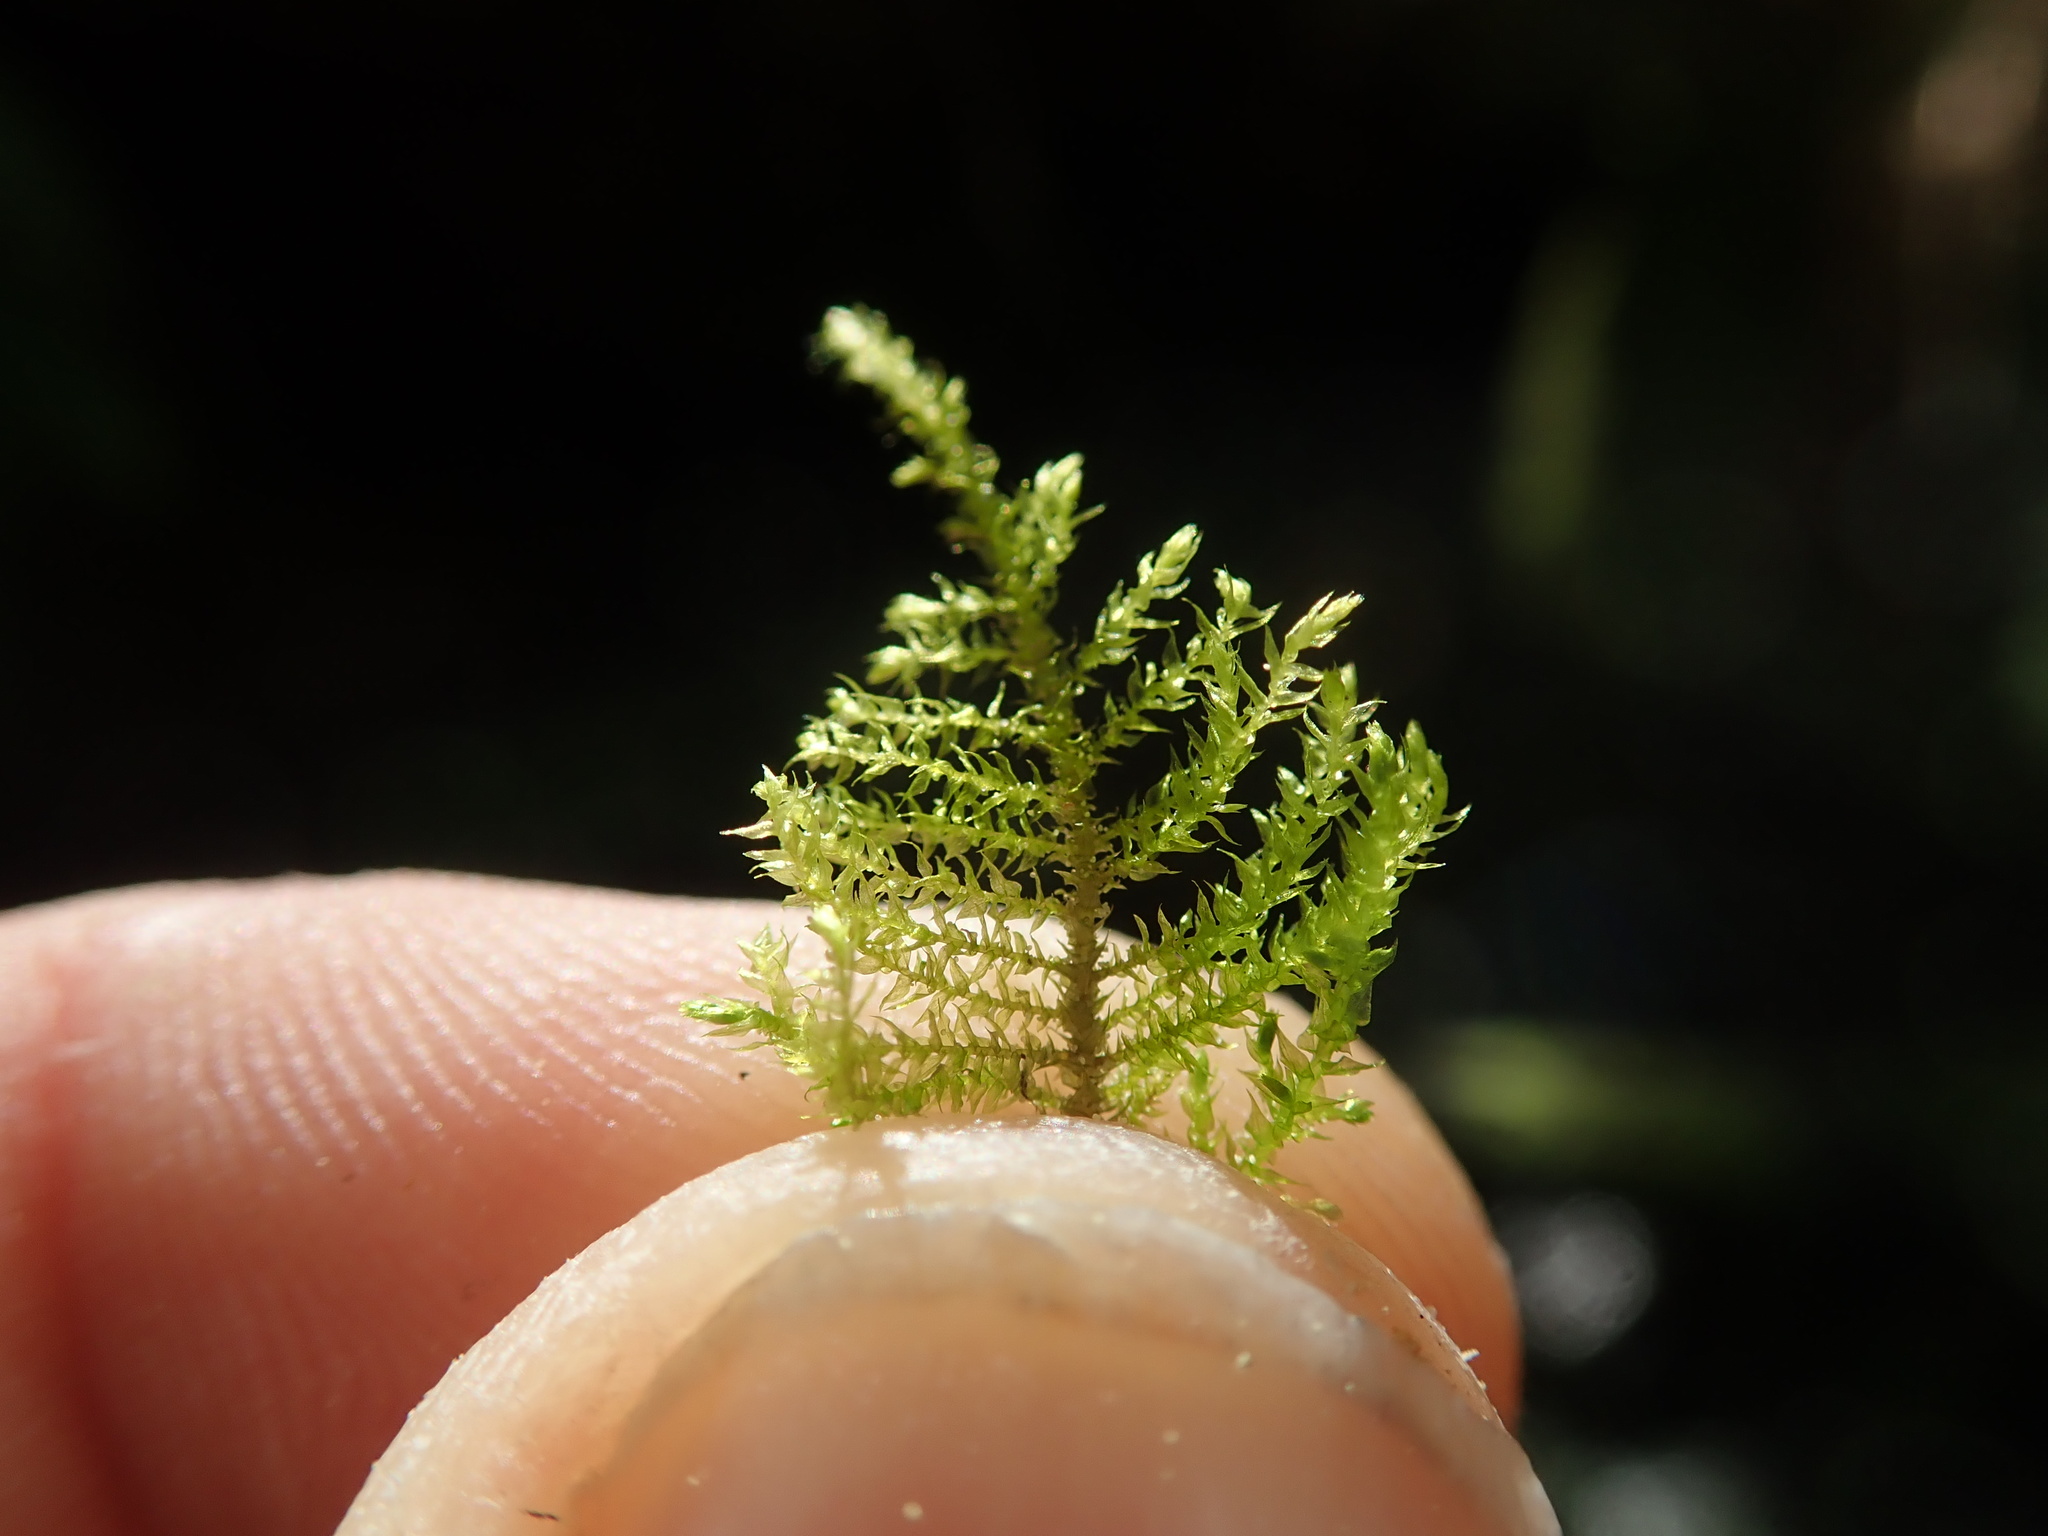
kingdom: Plantae
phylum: Bryophyta
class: Bryopsida
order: Hypnales
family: Brachytheciaceae
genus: Kindbergia
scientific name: Kindbergia praelonga
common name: Slender beaked moss
